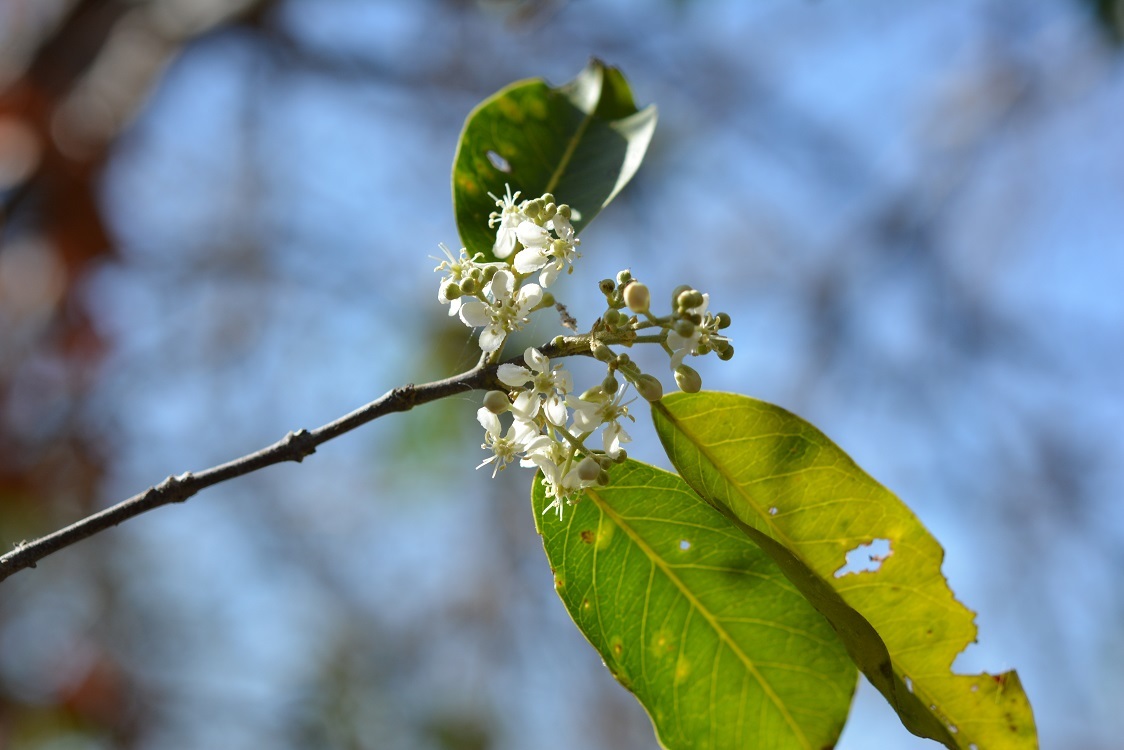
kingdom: Plantae
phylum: Tracheophyta
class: Magnoliopsida
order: Malpighiales
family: Malpighiaceae
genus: Heteropterys
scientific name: Heteropterys laurifolia
